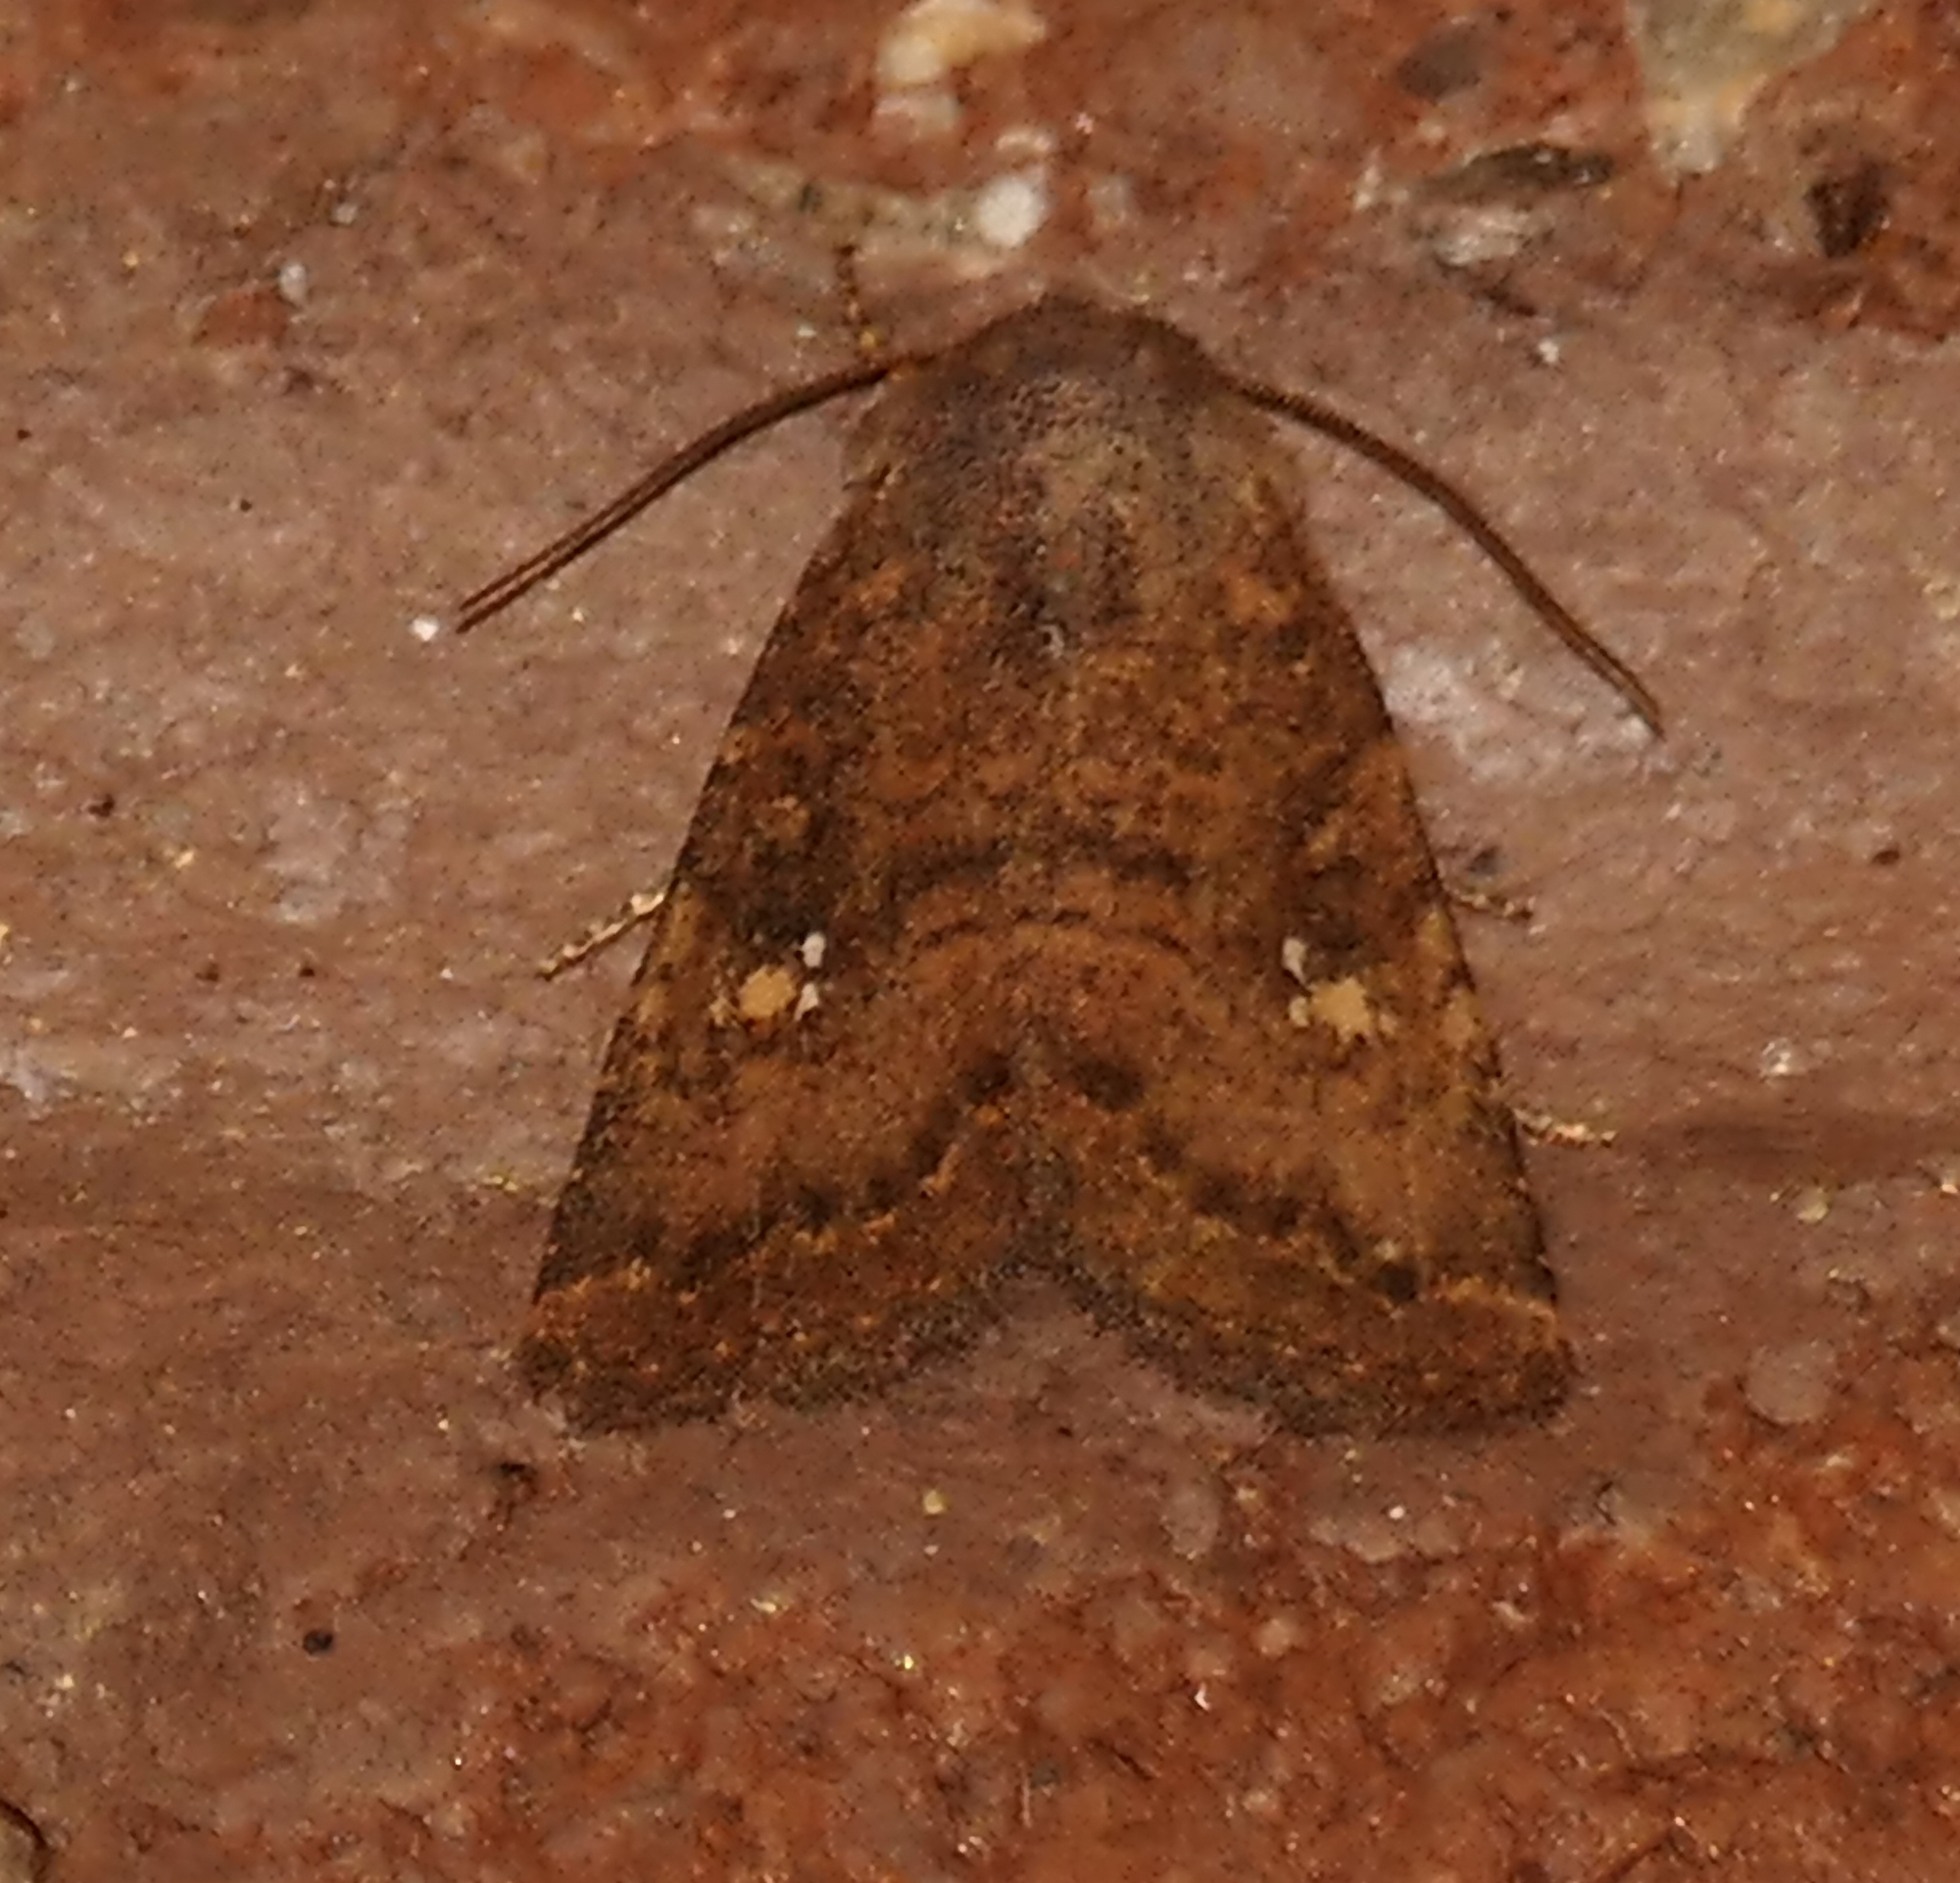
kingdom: Animalia
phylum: Arthropoda
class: Insecta
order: Lepidoptera
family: Noctuidae
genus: Trichopolia
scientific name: Trichopolia
